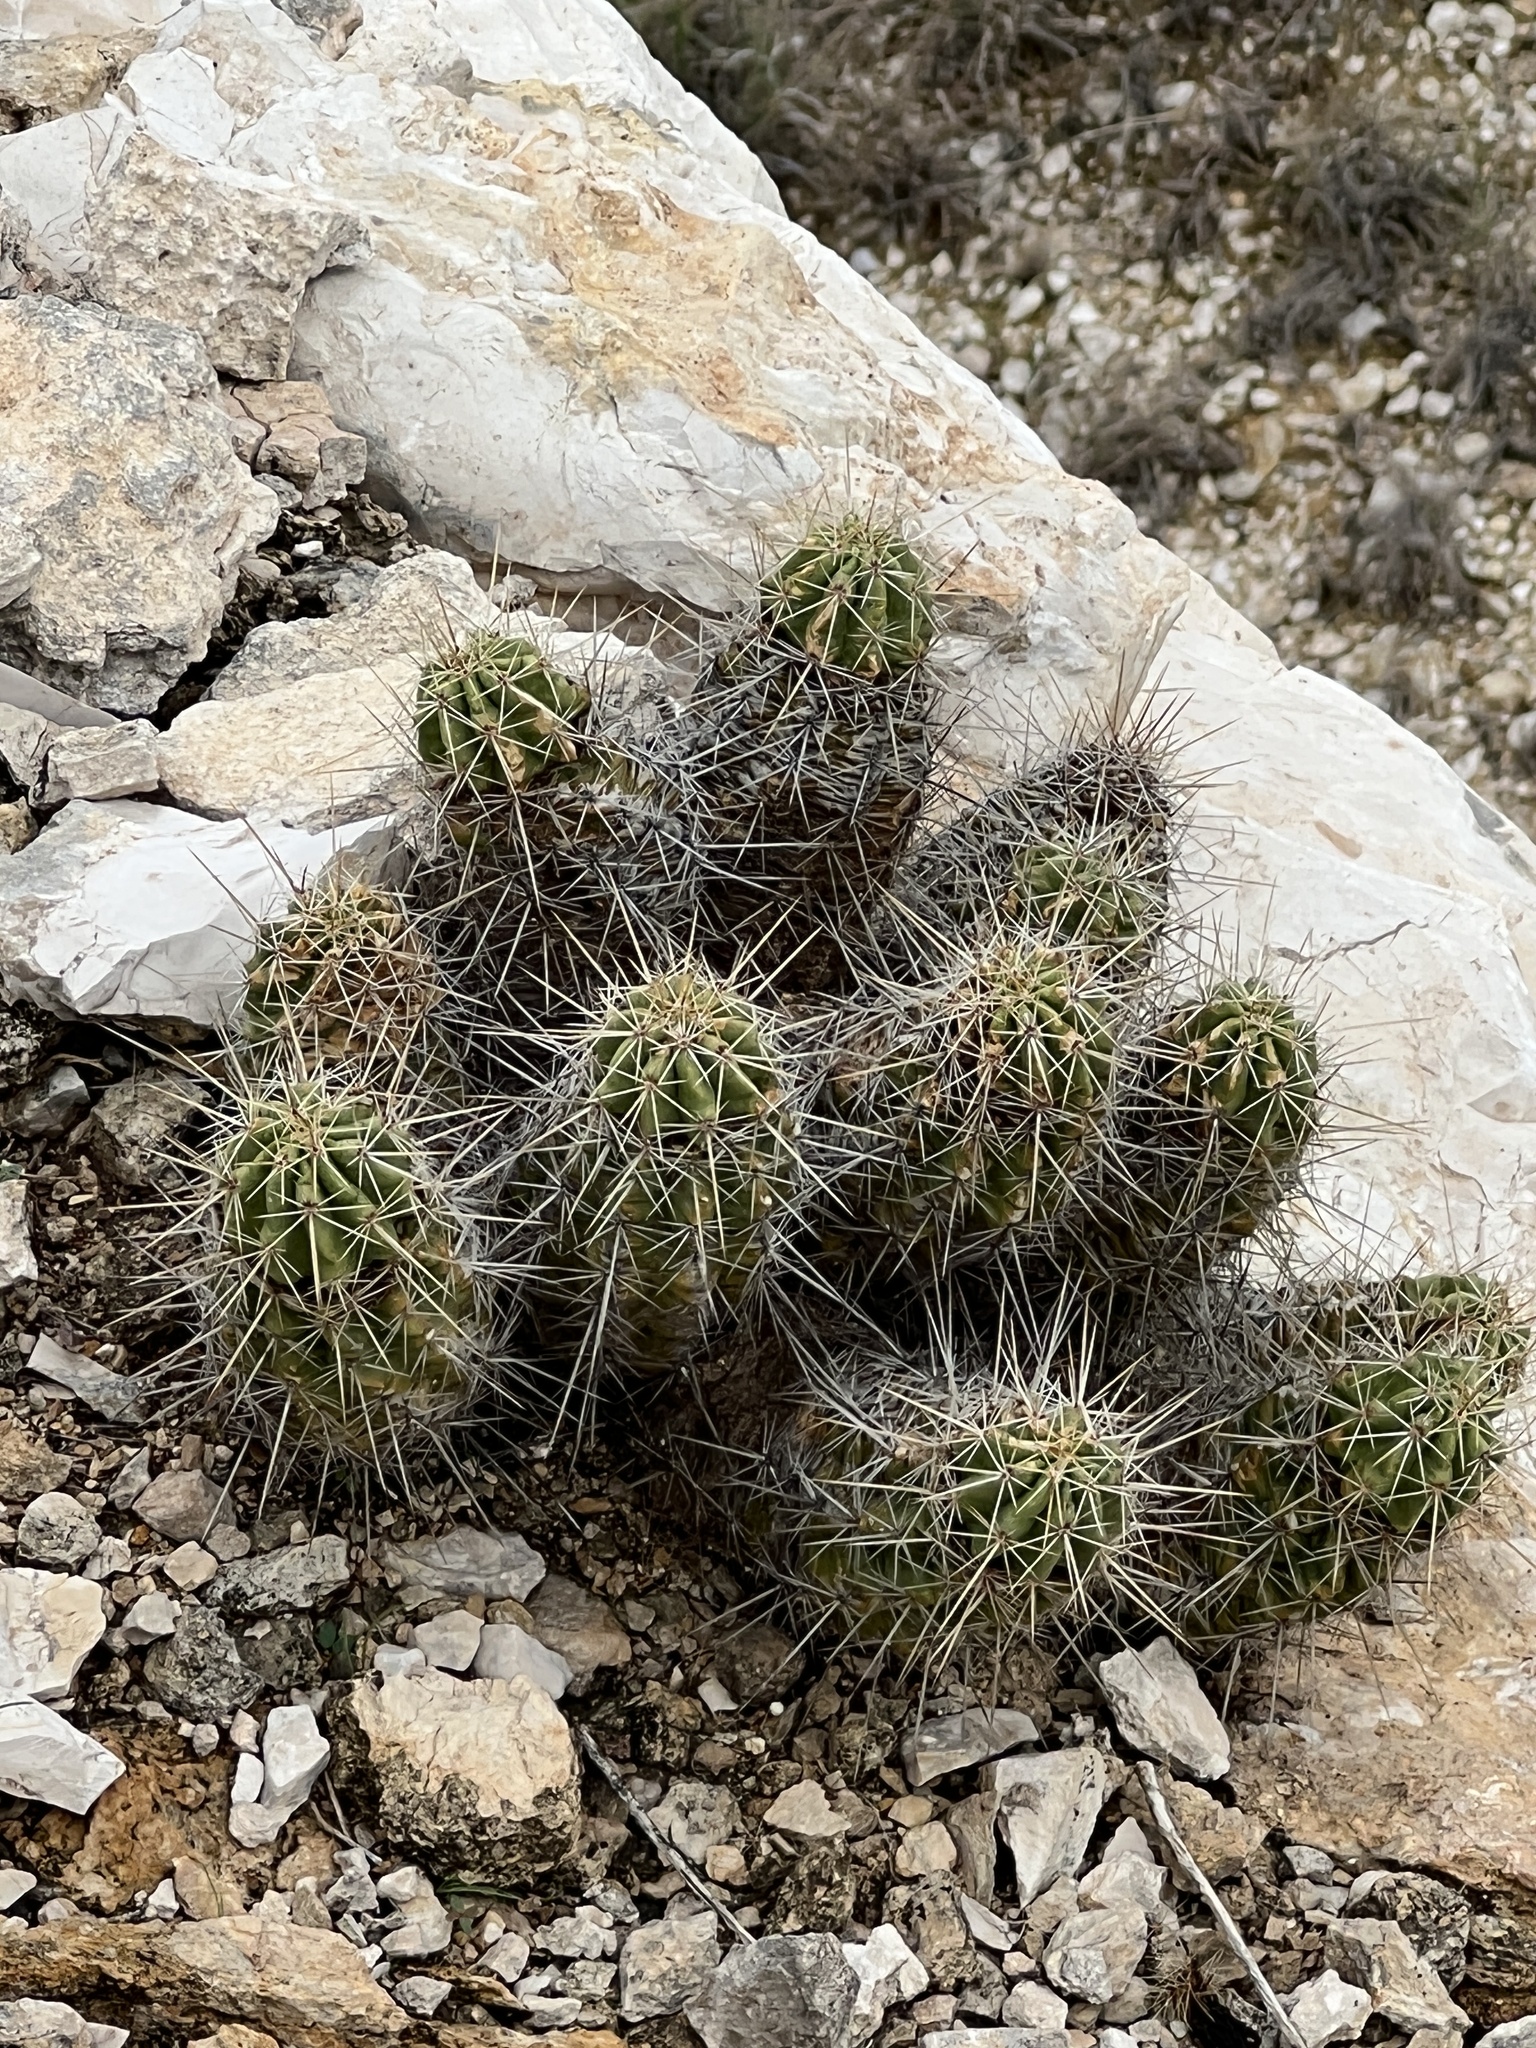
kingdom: Plantae
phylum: Tracheophyta
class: Magnoliopsida
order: Caryophyllales
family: Cactaceae
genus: Echinocereus
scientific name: Echinocereus enneacanthus
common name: Pitaya
